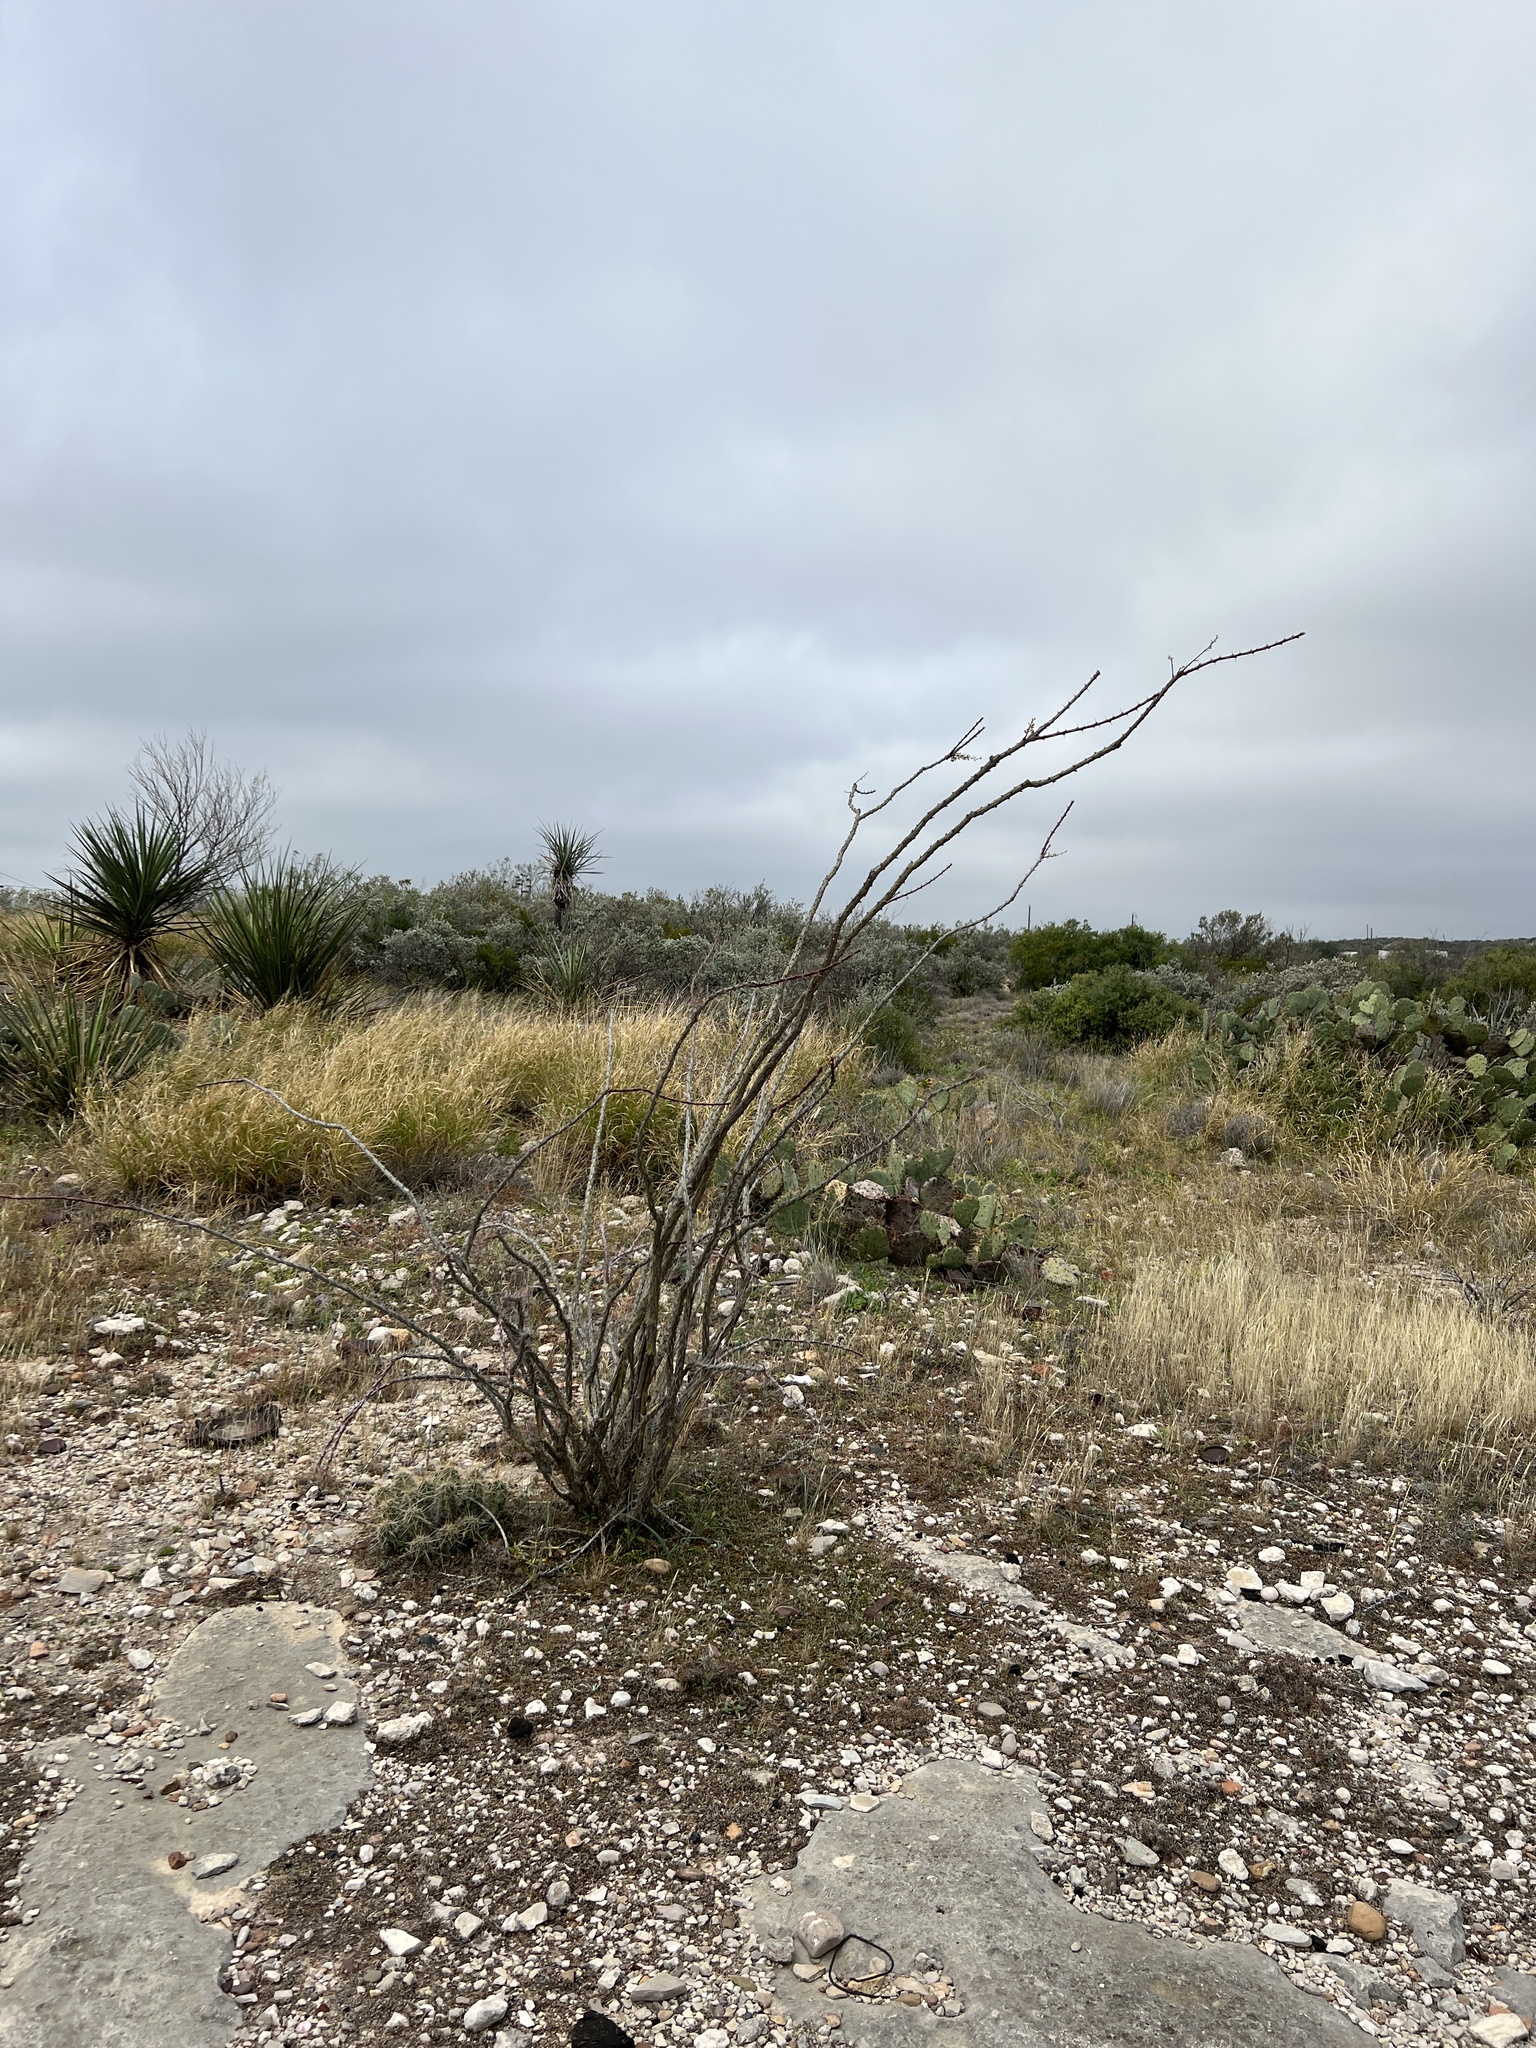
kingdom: Plantae
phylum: Tracheophyta
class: Magnoliopsida
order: Ericales
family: Fouquieriaceae
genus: Fouquieria
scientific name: Fouquieria splendens
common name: Vine-cactus
